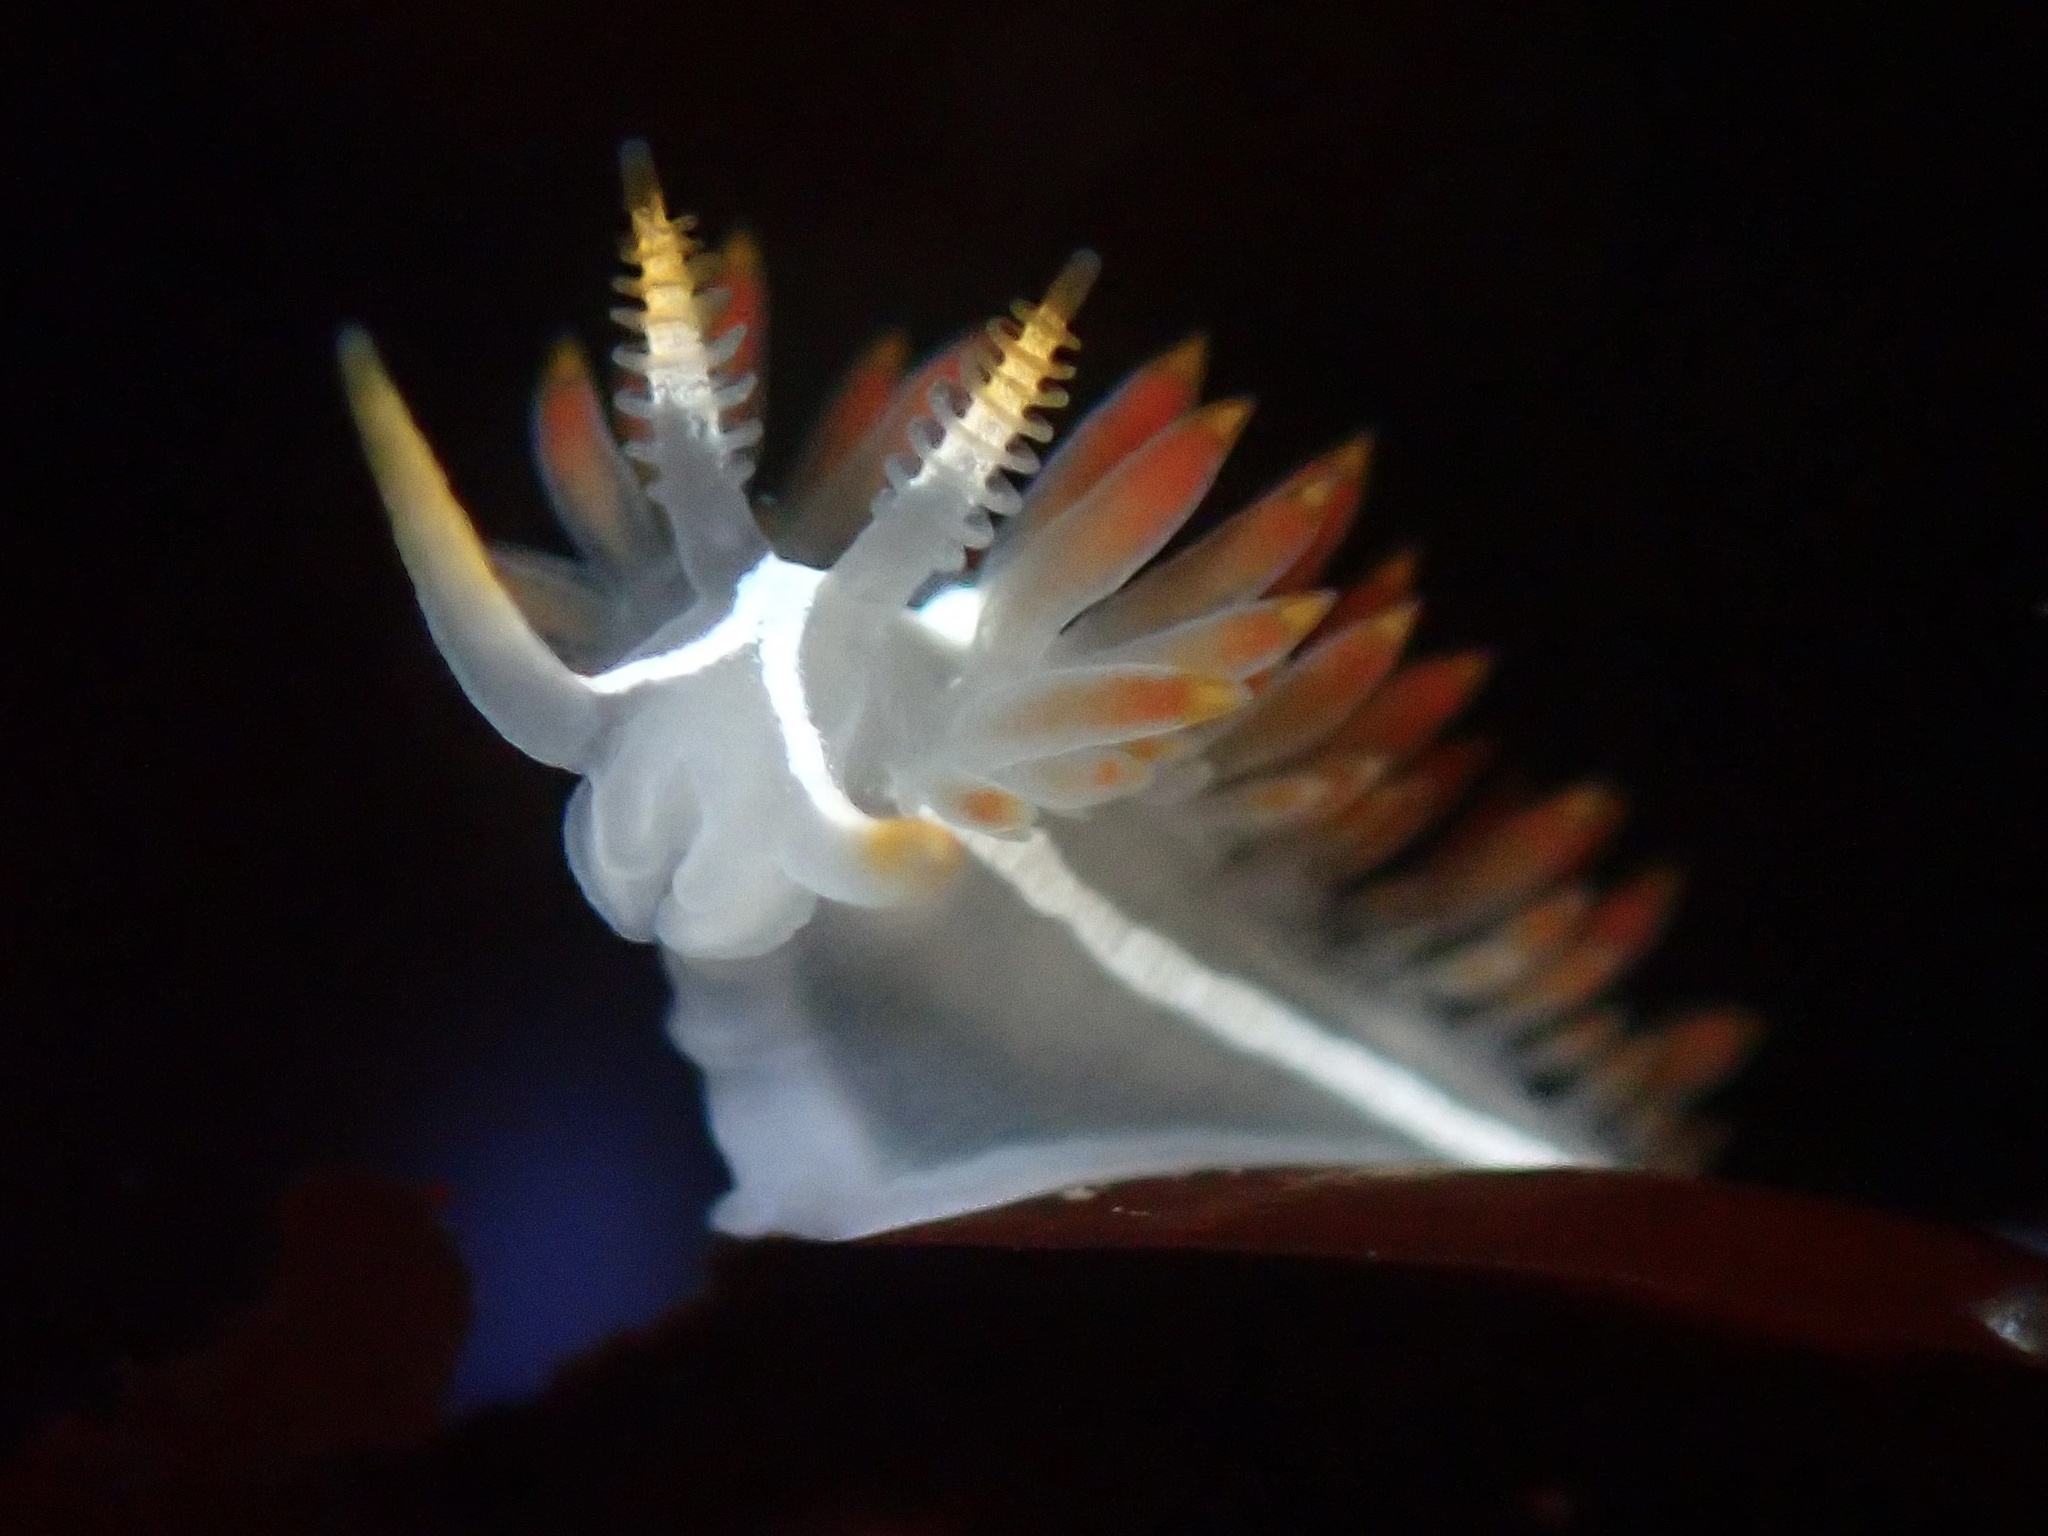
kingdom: Animalia
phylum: Mollusca
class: Gastropoda
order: Nudibranchia
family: Coryphellidae
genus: Coryphella
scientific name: Coryphella trilineata
